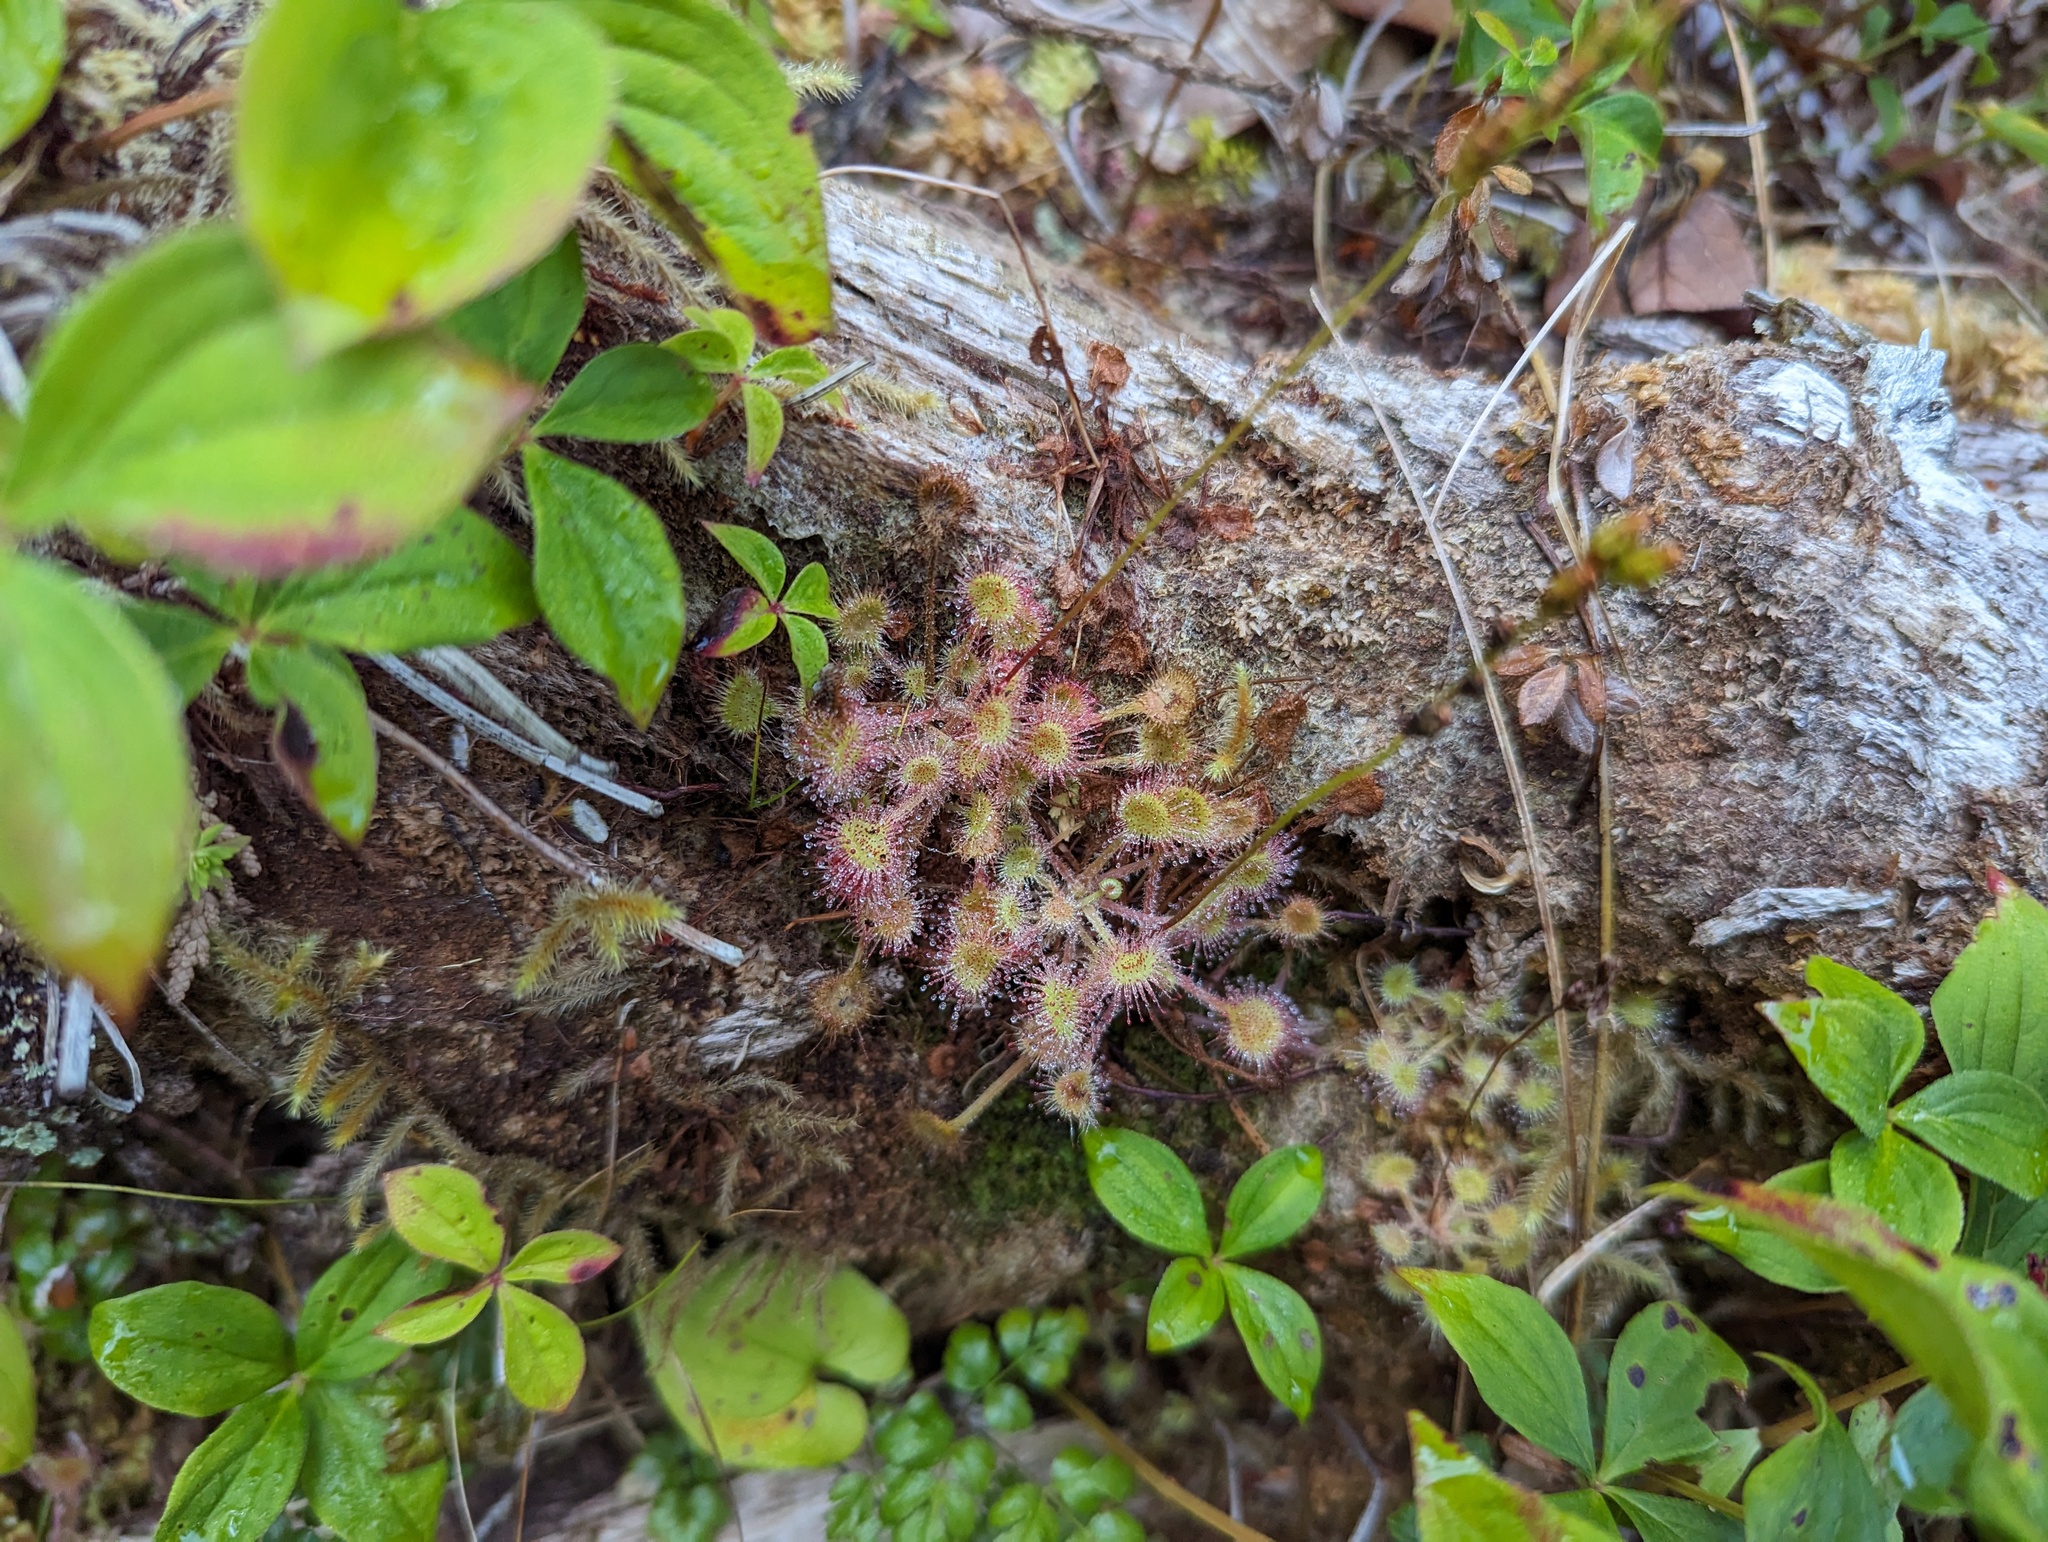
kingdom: Plantae
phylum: Tracheophyta
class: Magnoliopsida
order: Caryophyllales
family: Droseraceae
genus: Drosera
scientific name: Drosera rotundifolia
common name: Round-leaved sundew
